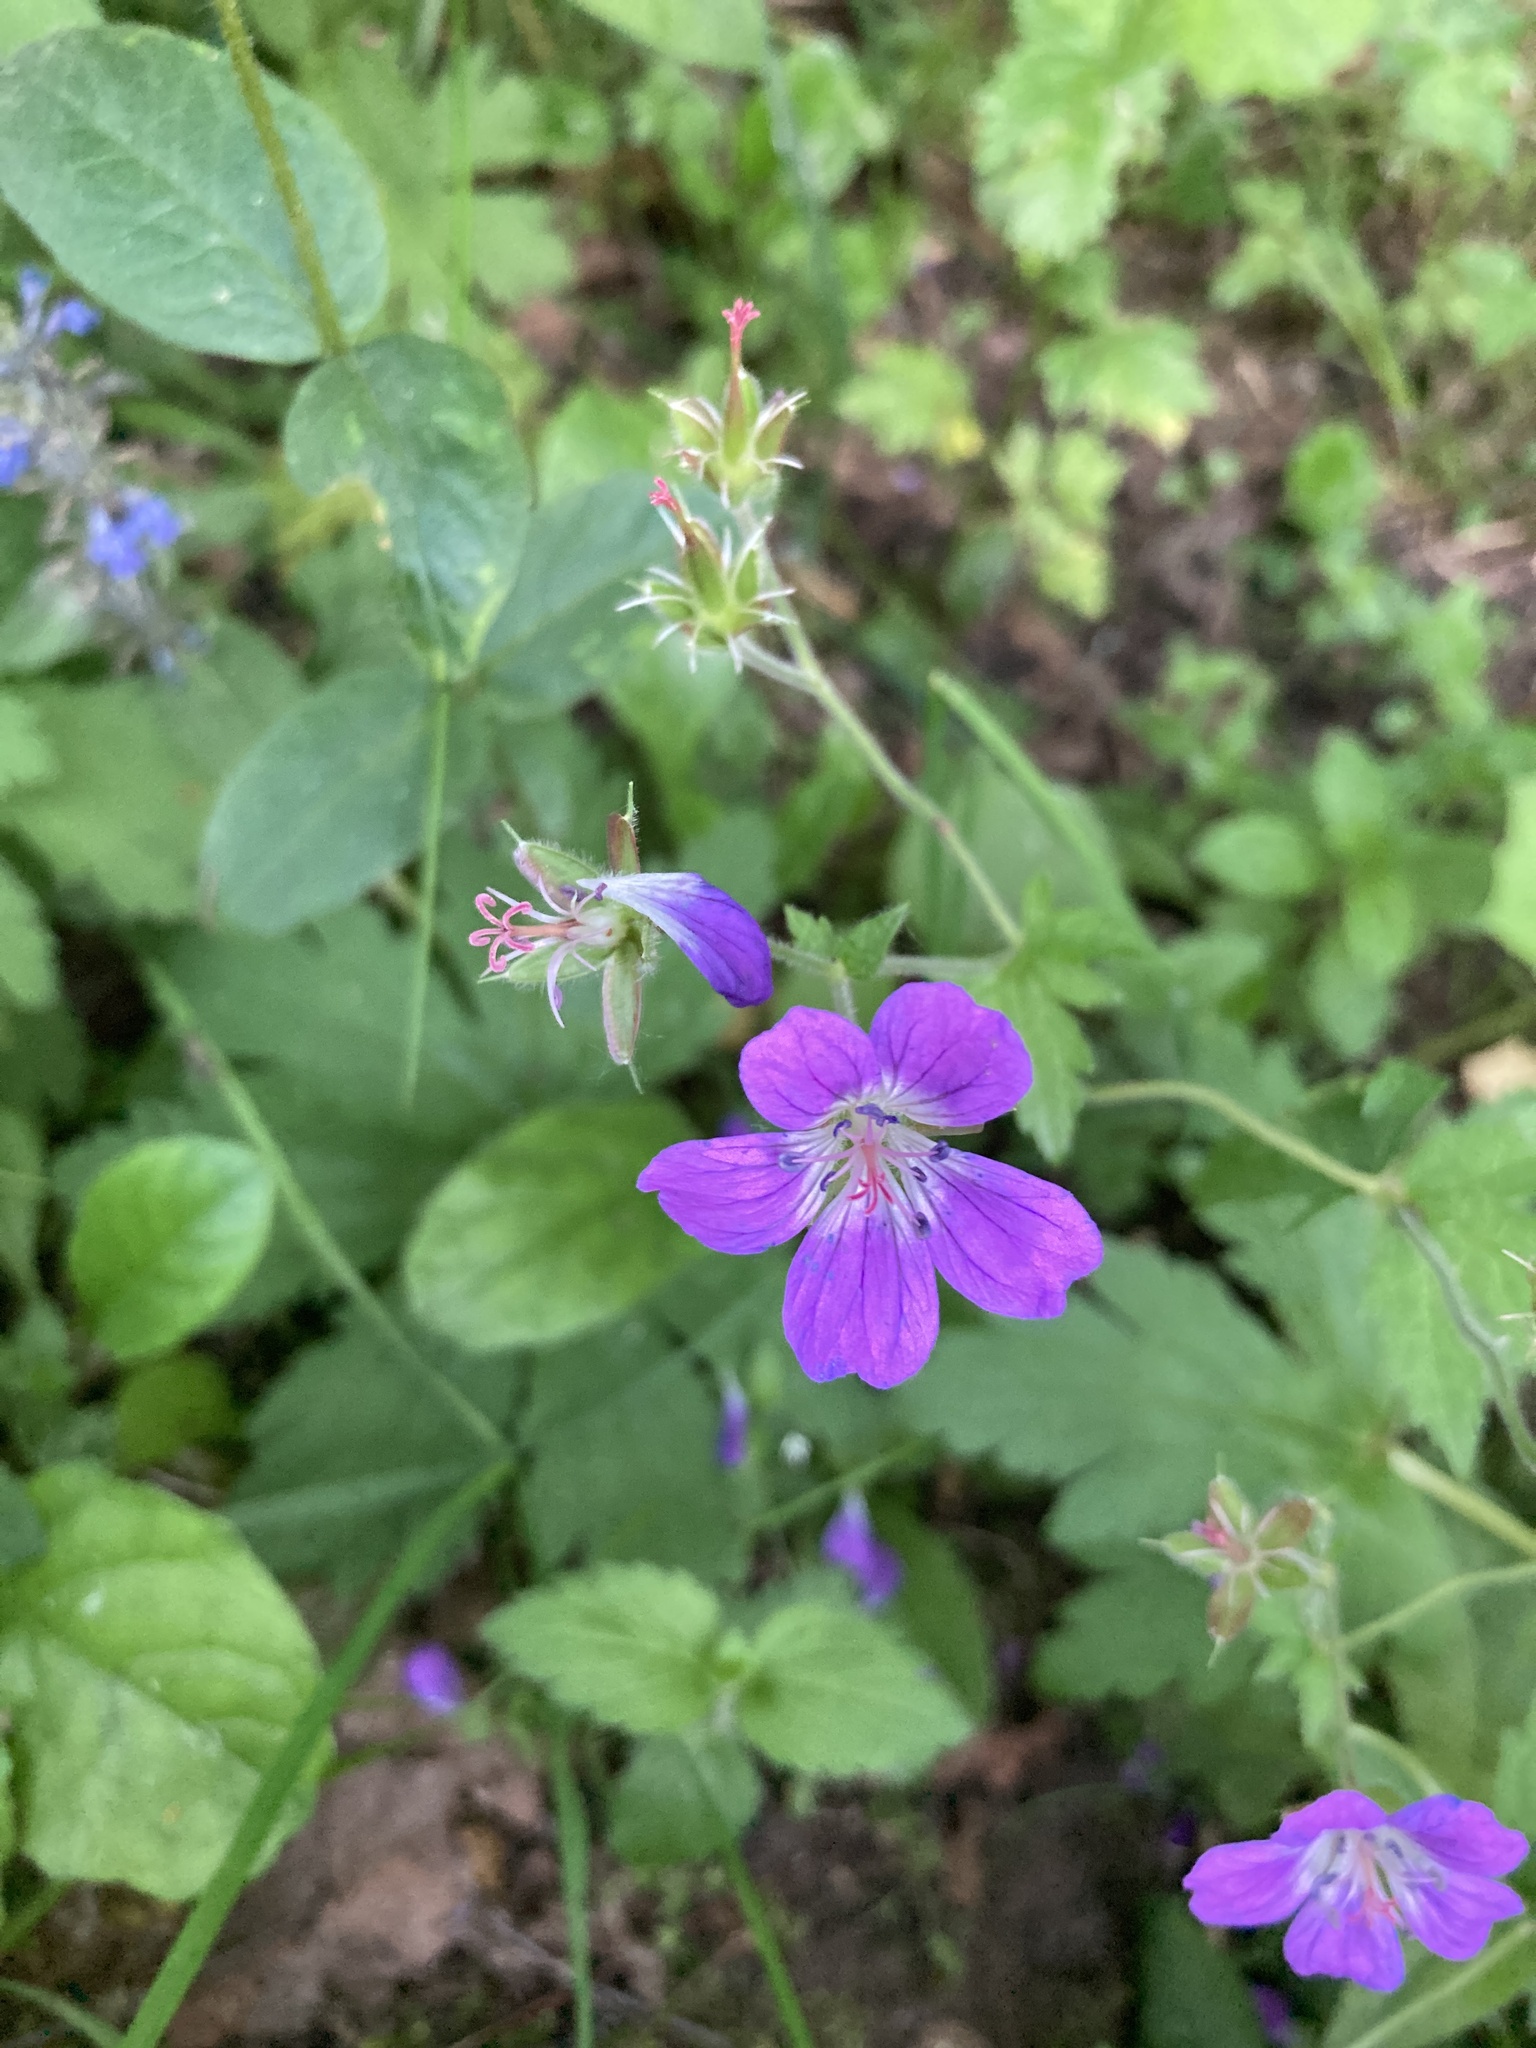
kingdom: Plantae
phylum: Tracheophyta
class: Magnoliopsida
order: Geraniales
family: Geraniaceae
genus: Geranium
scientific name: Geranium sylvaticum
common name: Wood crane's-bill
